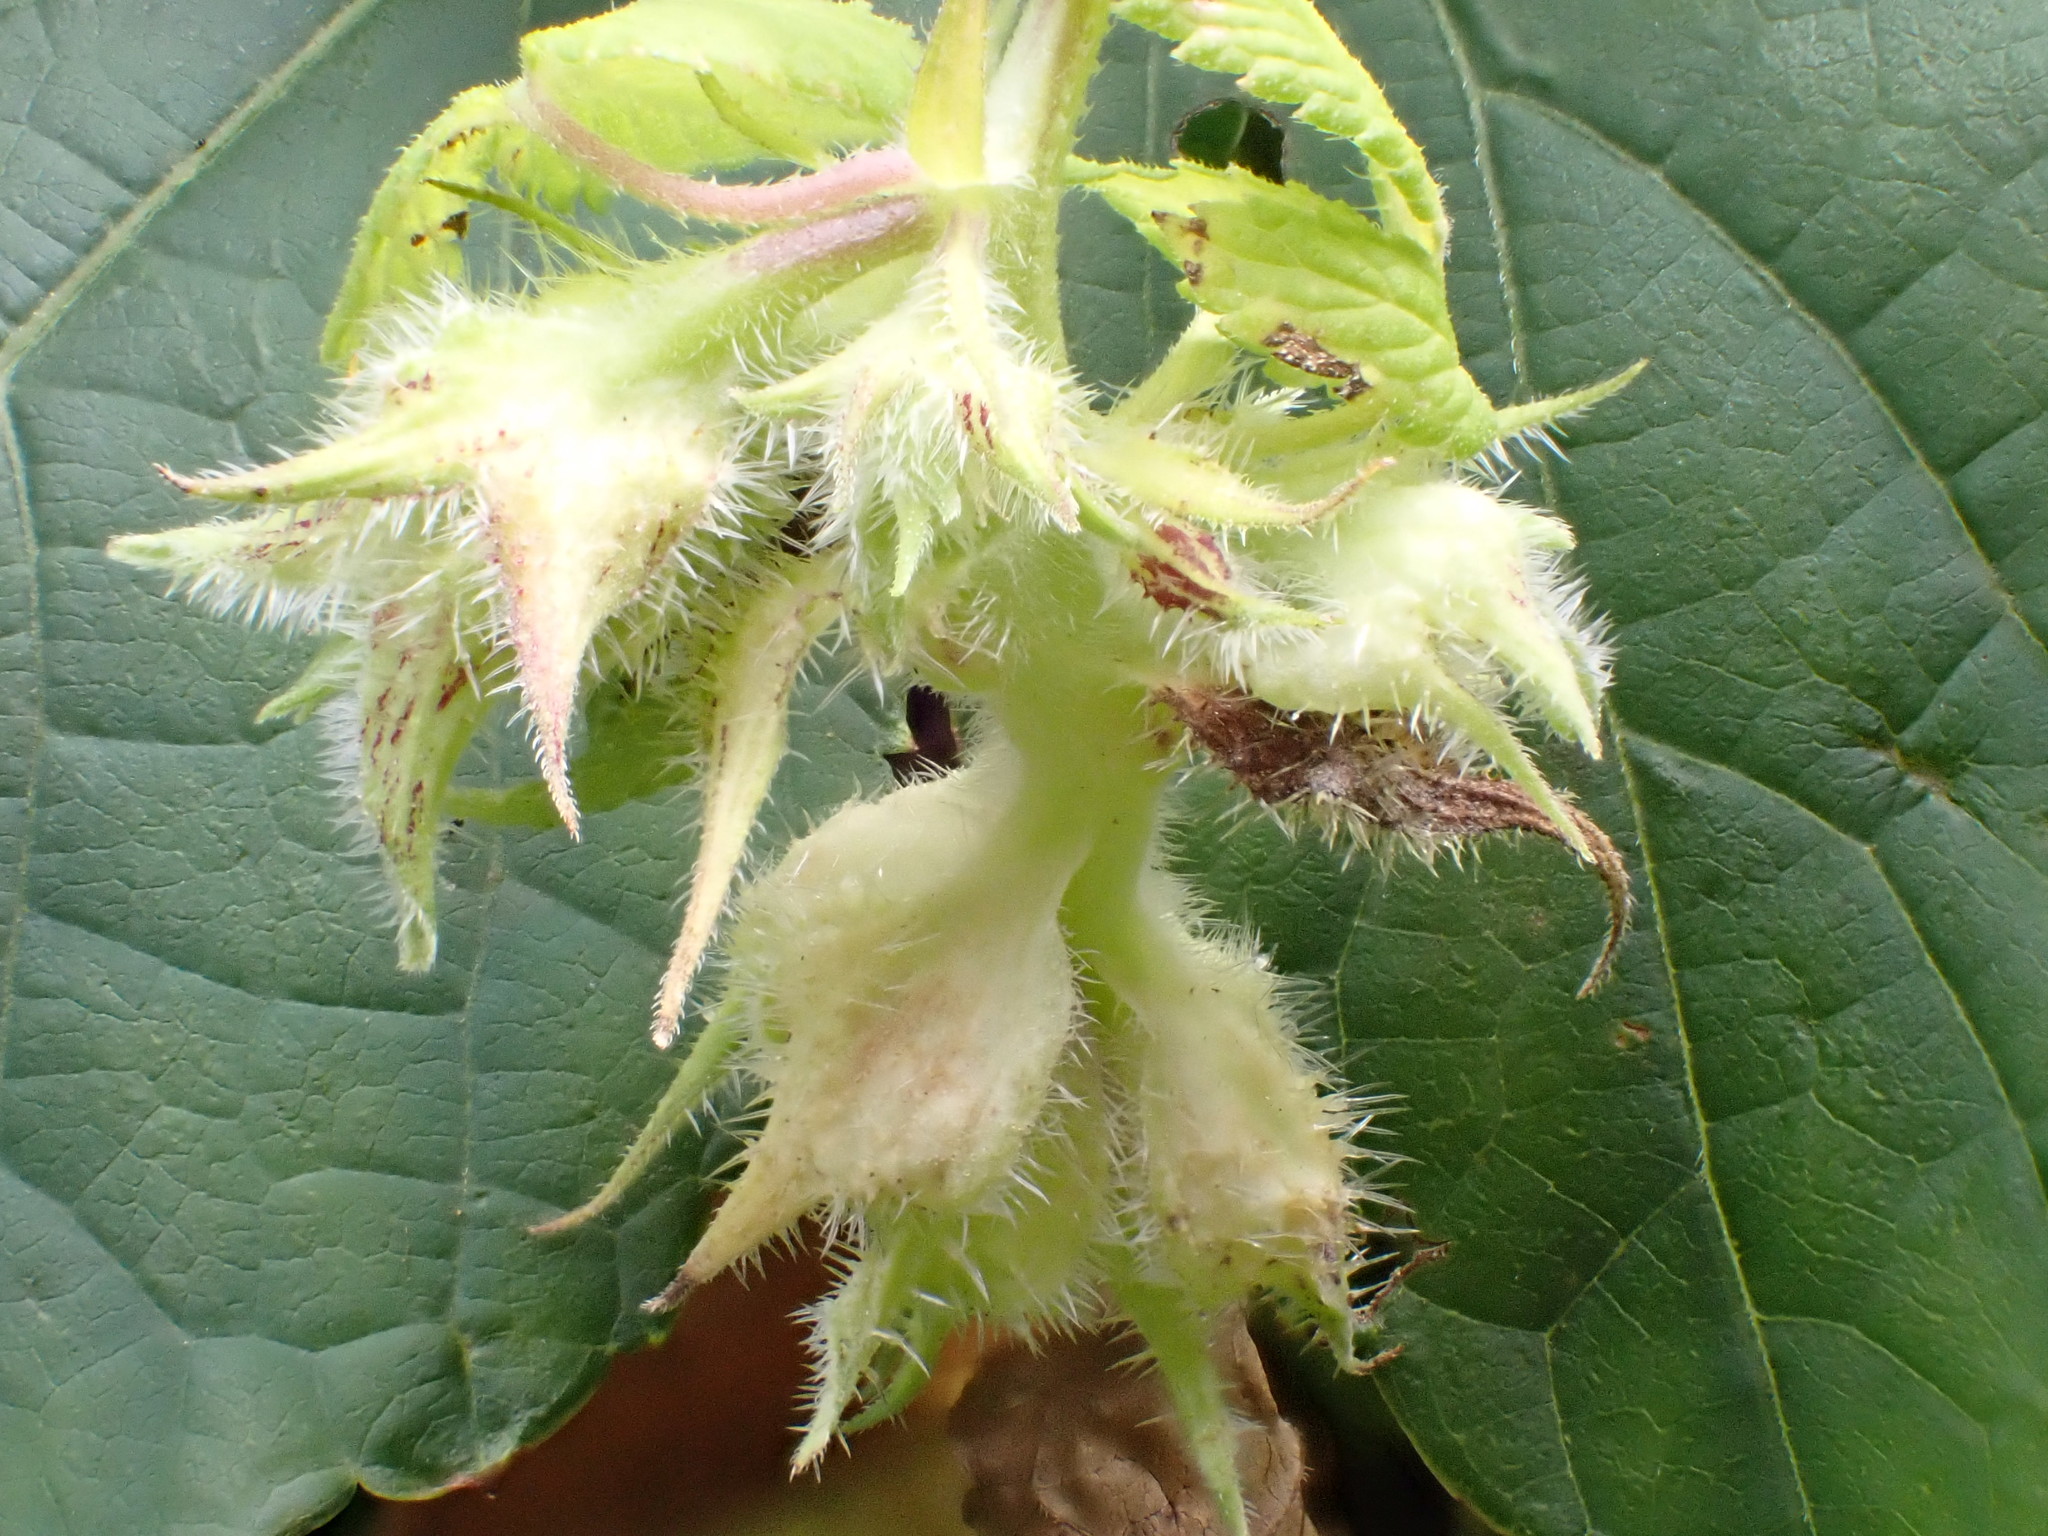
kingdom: Plantae
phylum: Tracheophyta
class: Magnoliopsida
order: Cucurbitales
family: Cucurbitaceae
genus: Sicyos
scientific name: Sicyos angulatus
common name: Angled burr cucumber
